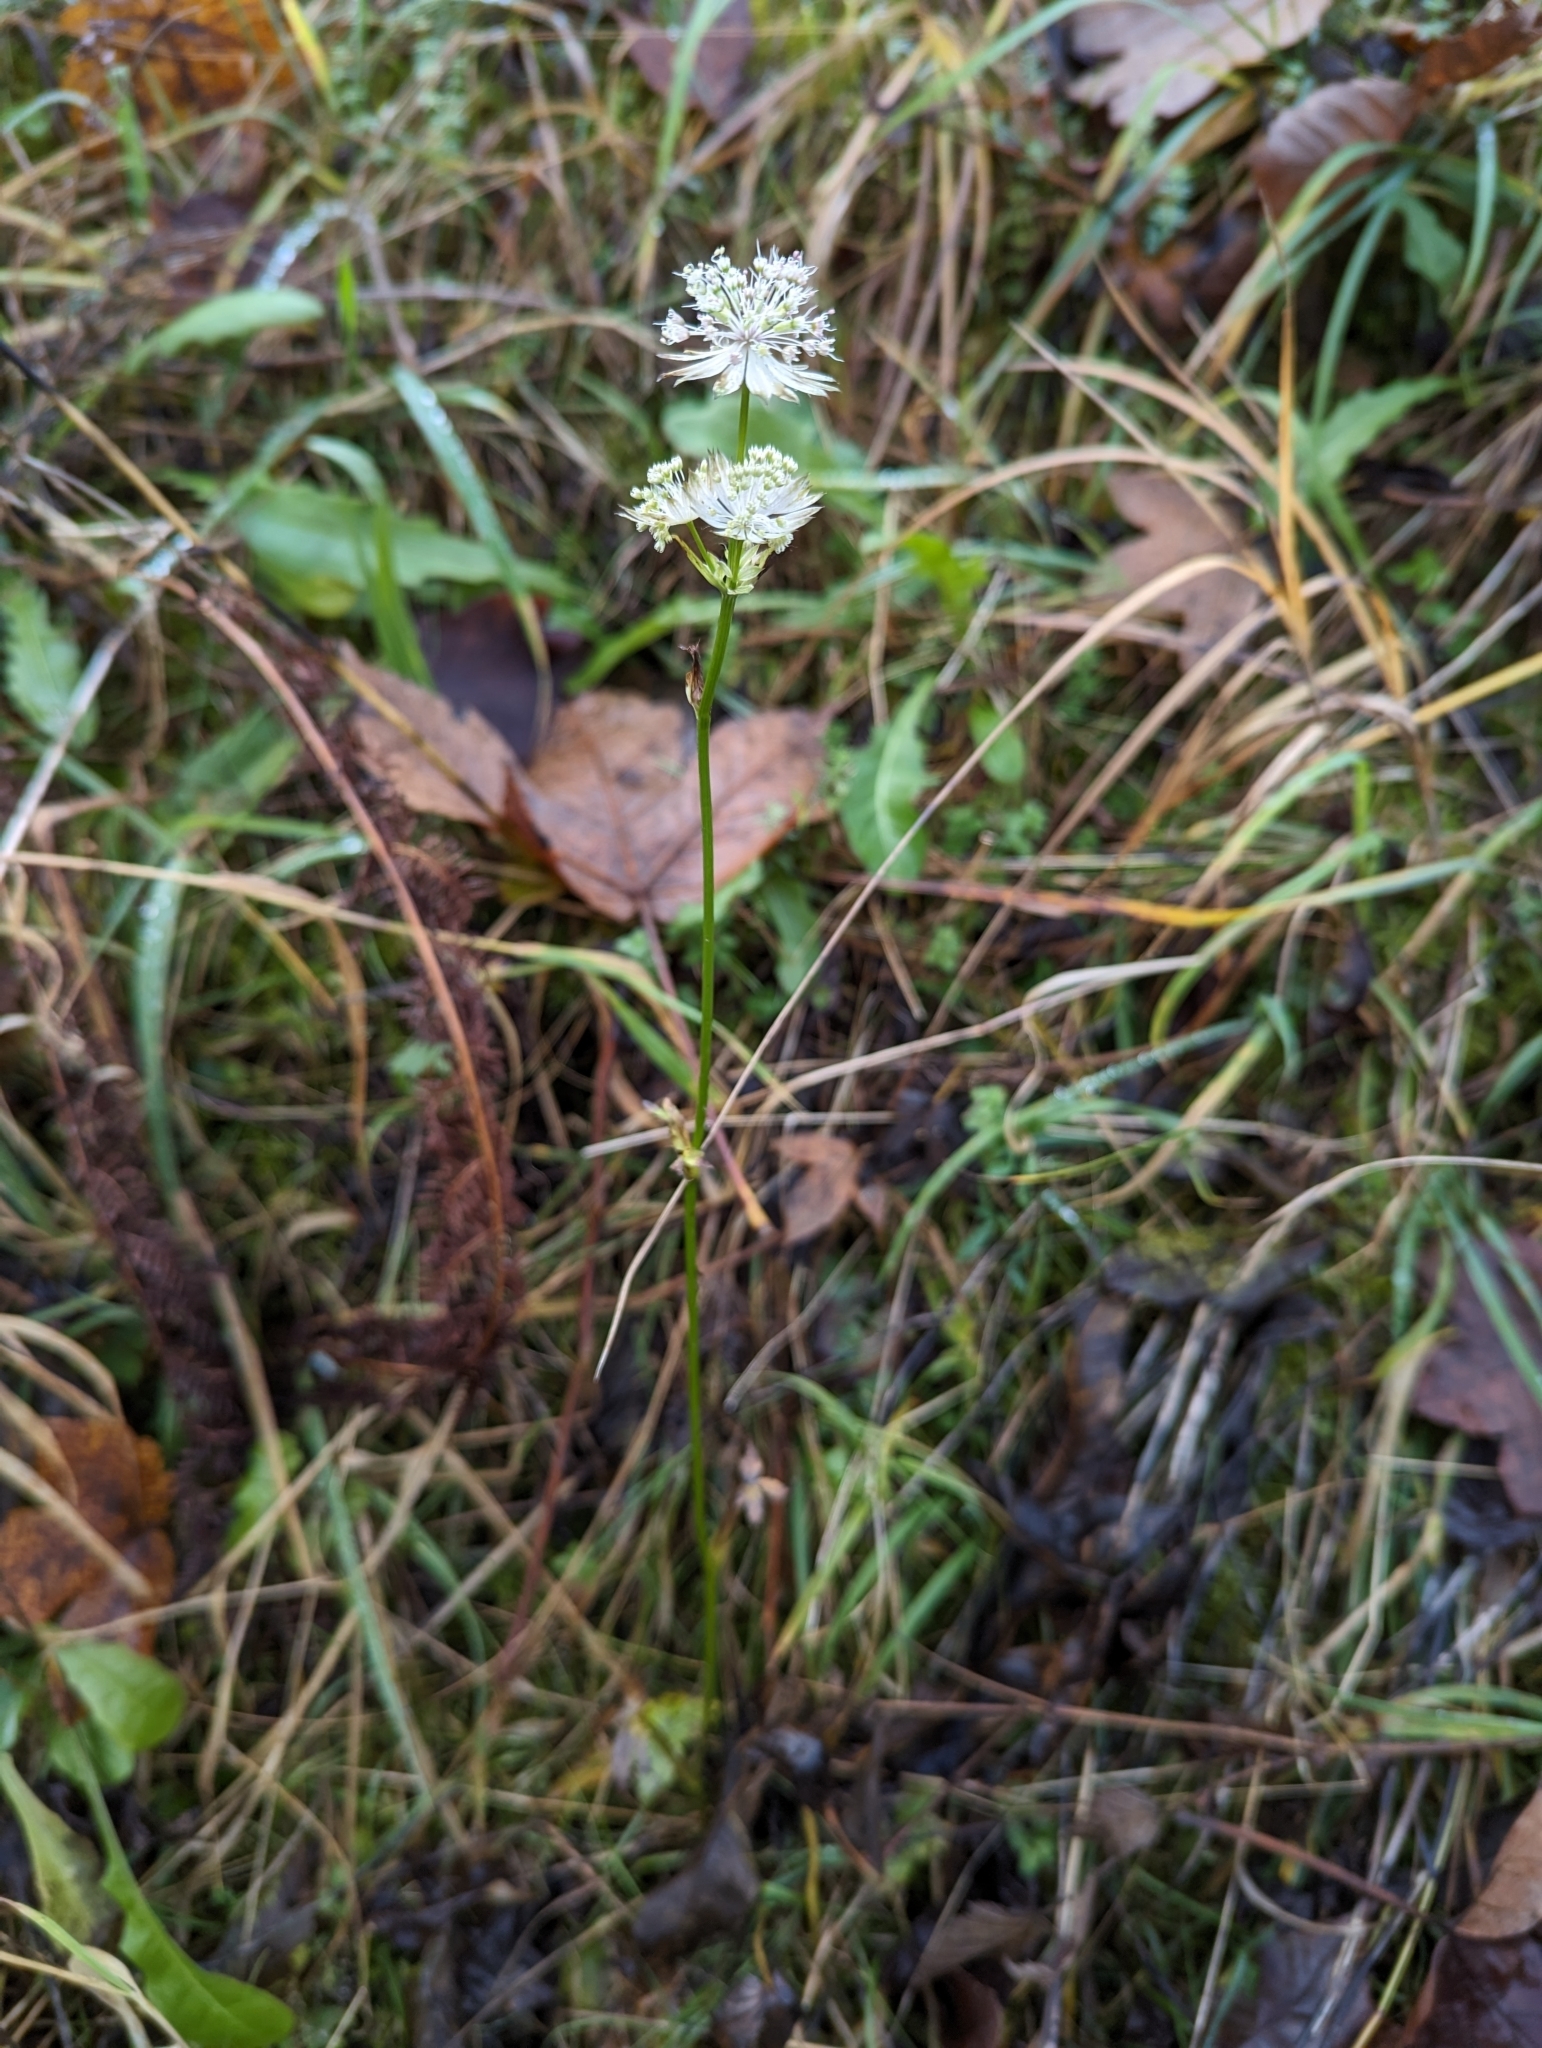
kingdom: Plantae
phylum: Tracheophyta
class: Magnoliopsida
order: Apiales
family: Apiaceae
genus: Astrantia
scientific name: Astrantia major
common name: Greater masterwort
